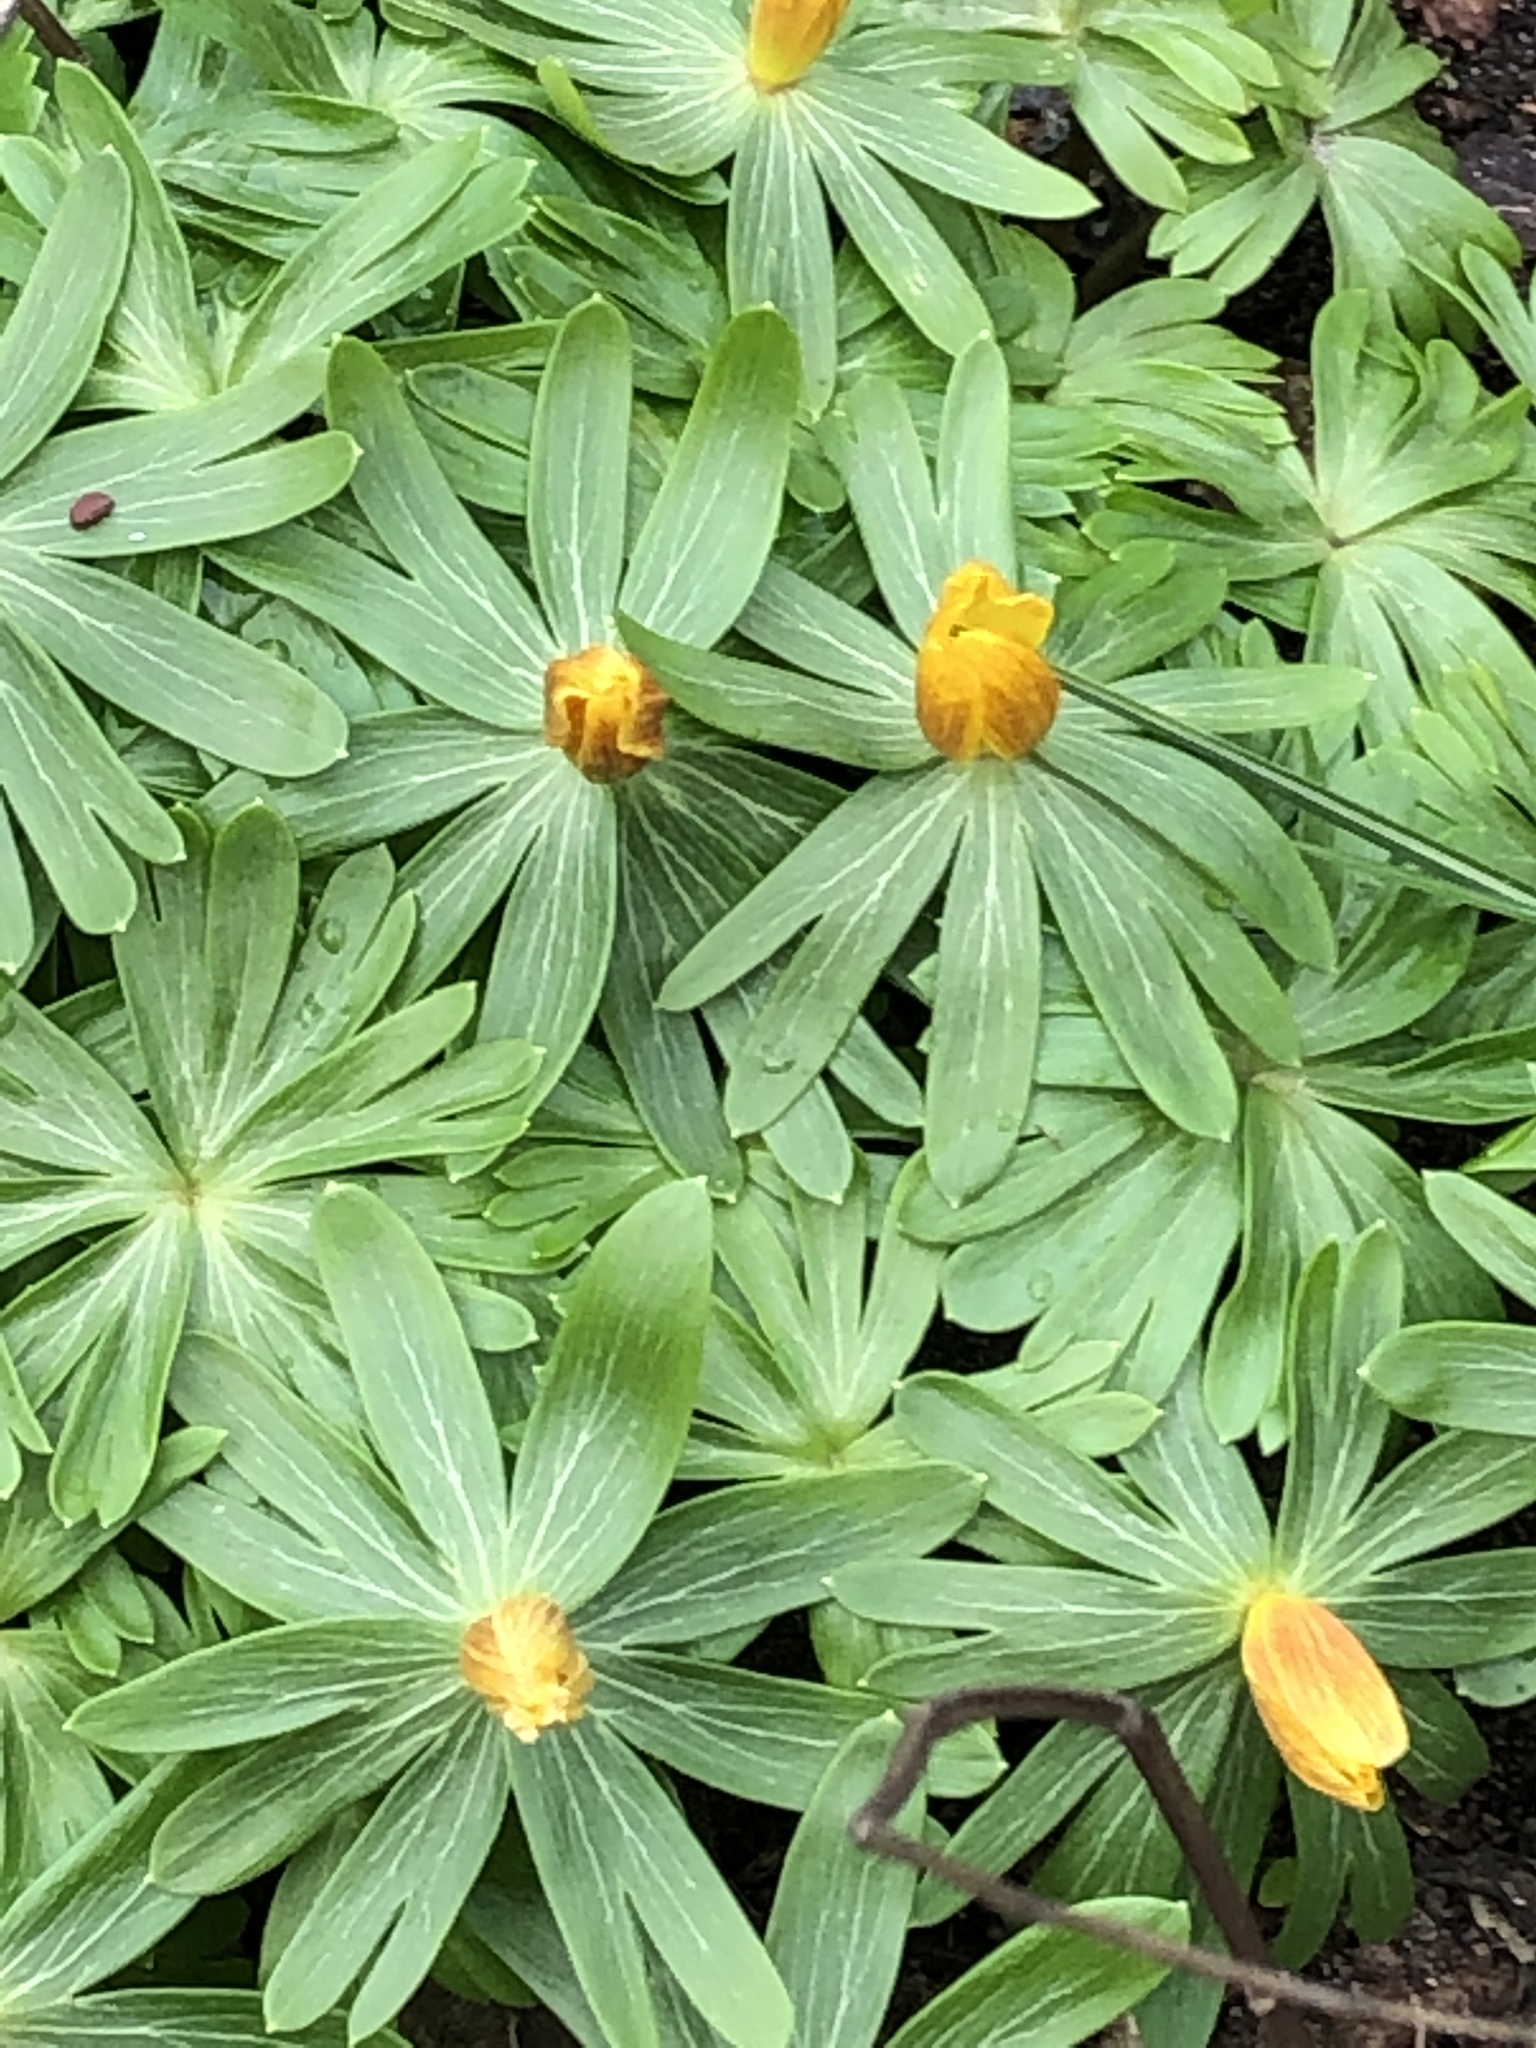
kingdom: Plantae
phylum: Tracheophyta
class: Magnoliopsida
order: Ranunculales
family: Ranunculaceae
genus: Eranthis
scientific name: Eranthis hyemalis
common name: Winter aconite
